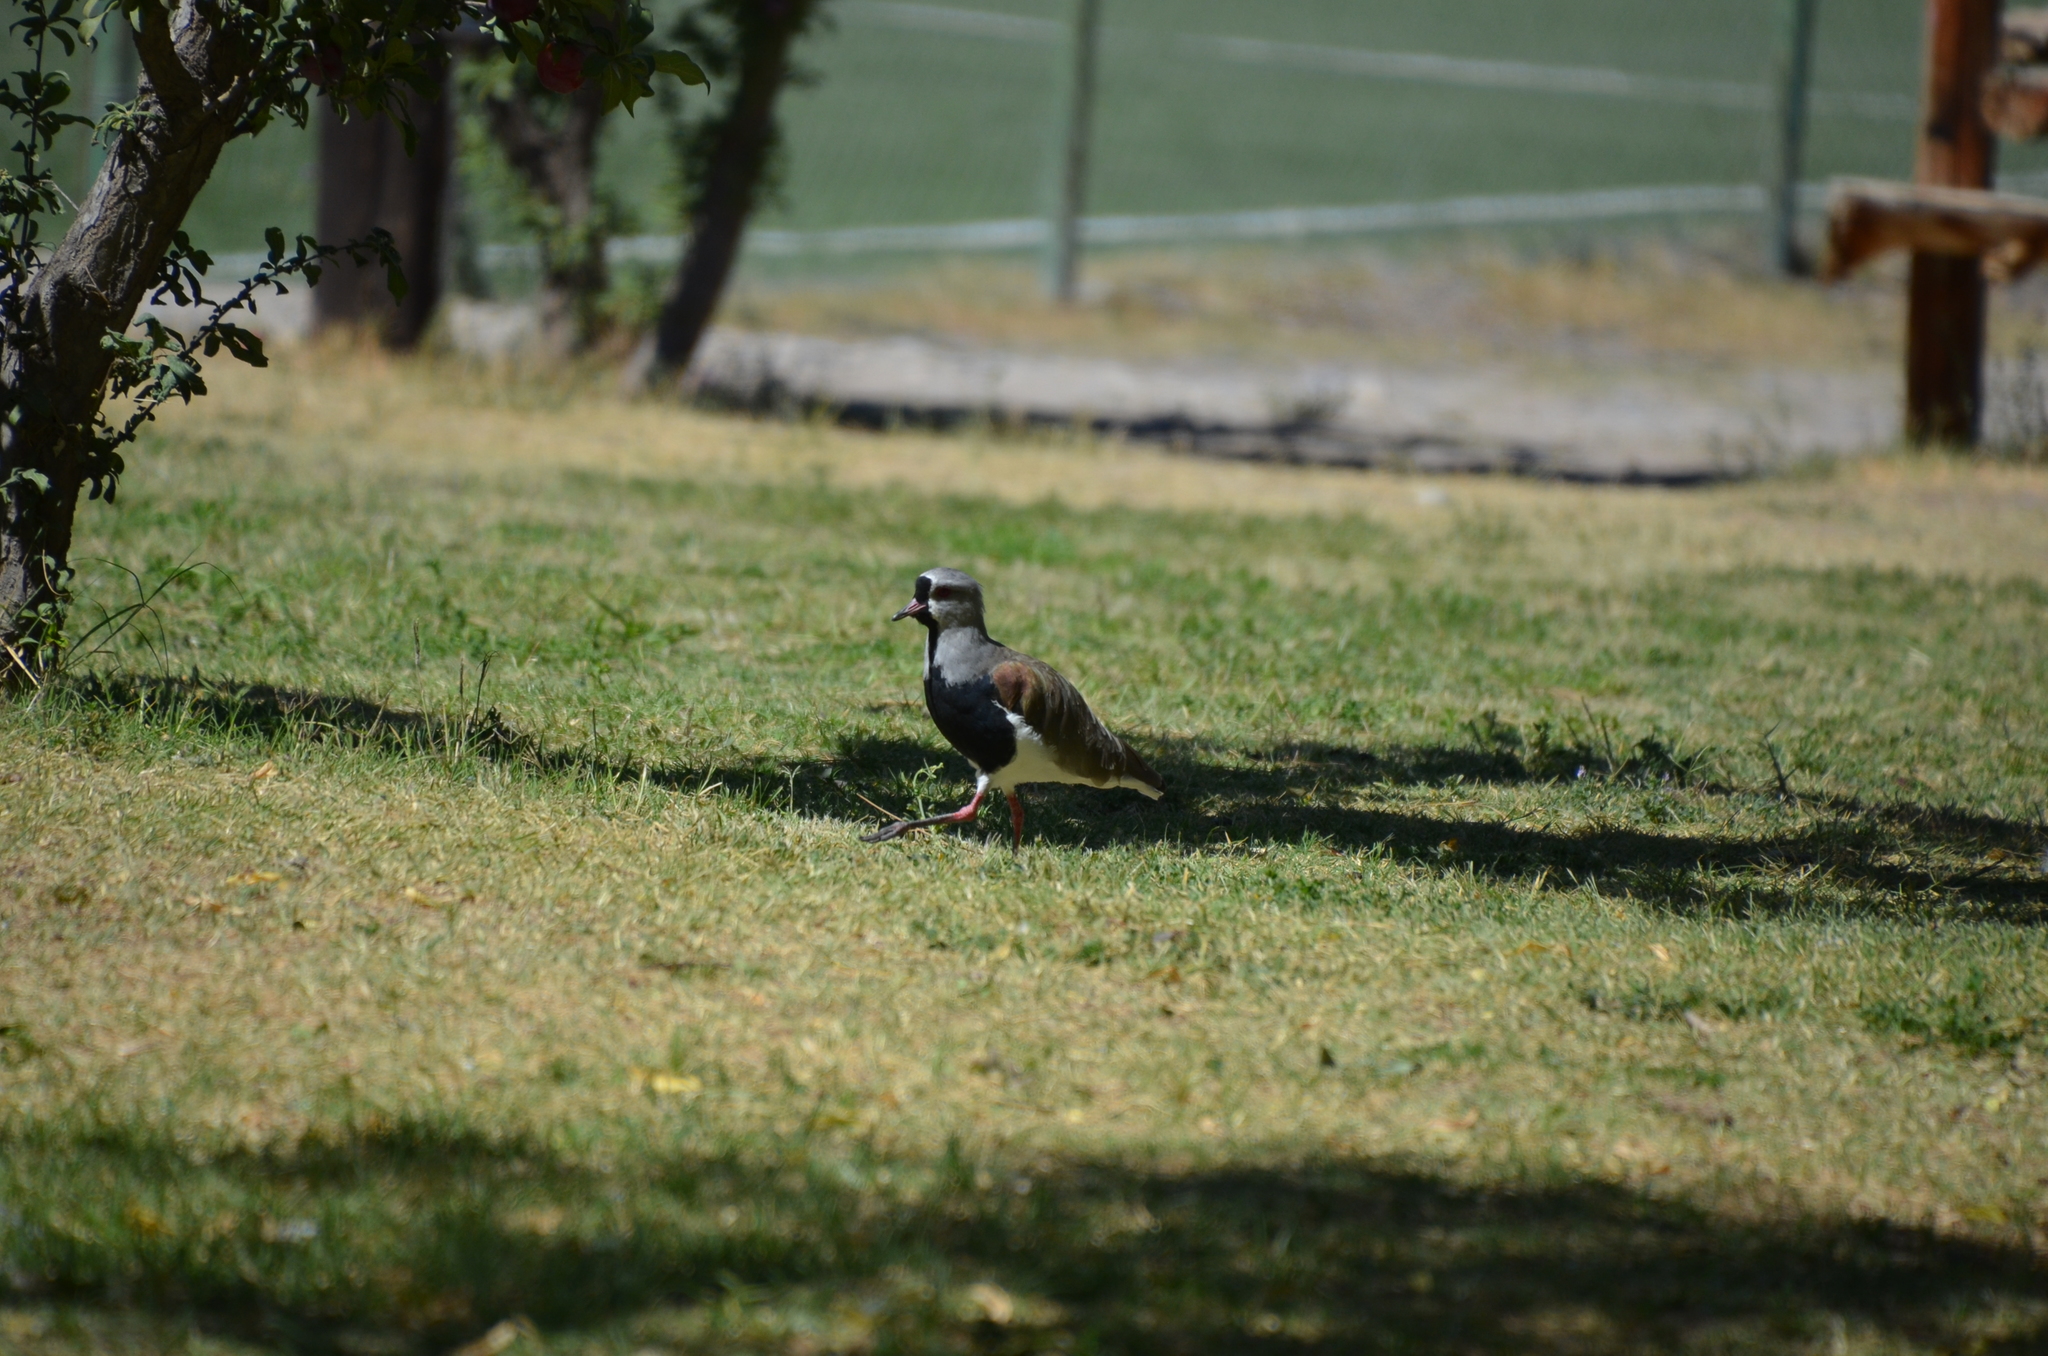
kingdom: Animalia
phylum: Chordata
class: Aves
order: Charadriiformes
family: Charadriidae
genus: Vanellus
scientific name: Vanellus chilensis
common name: Southern lapwing
